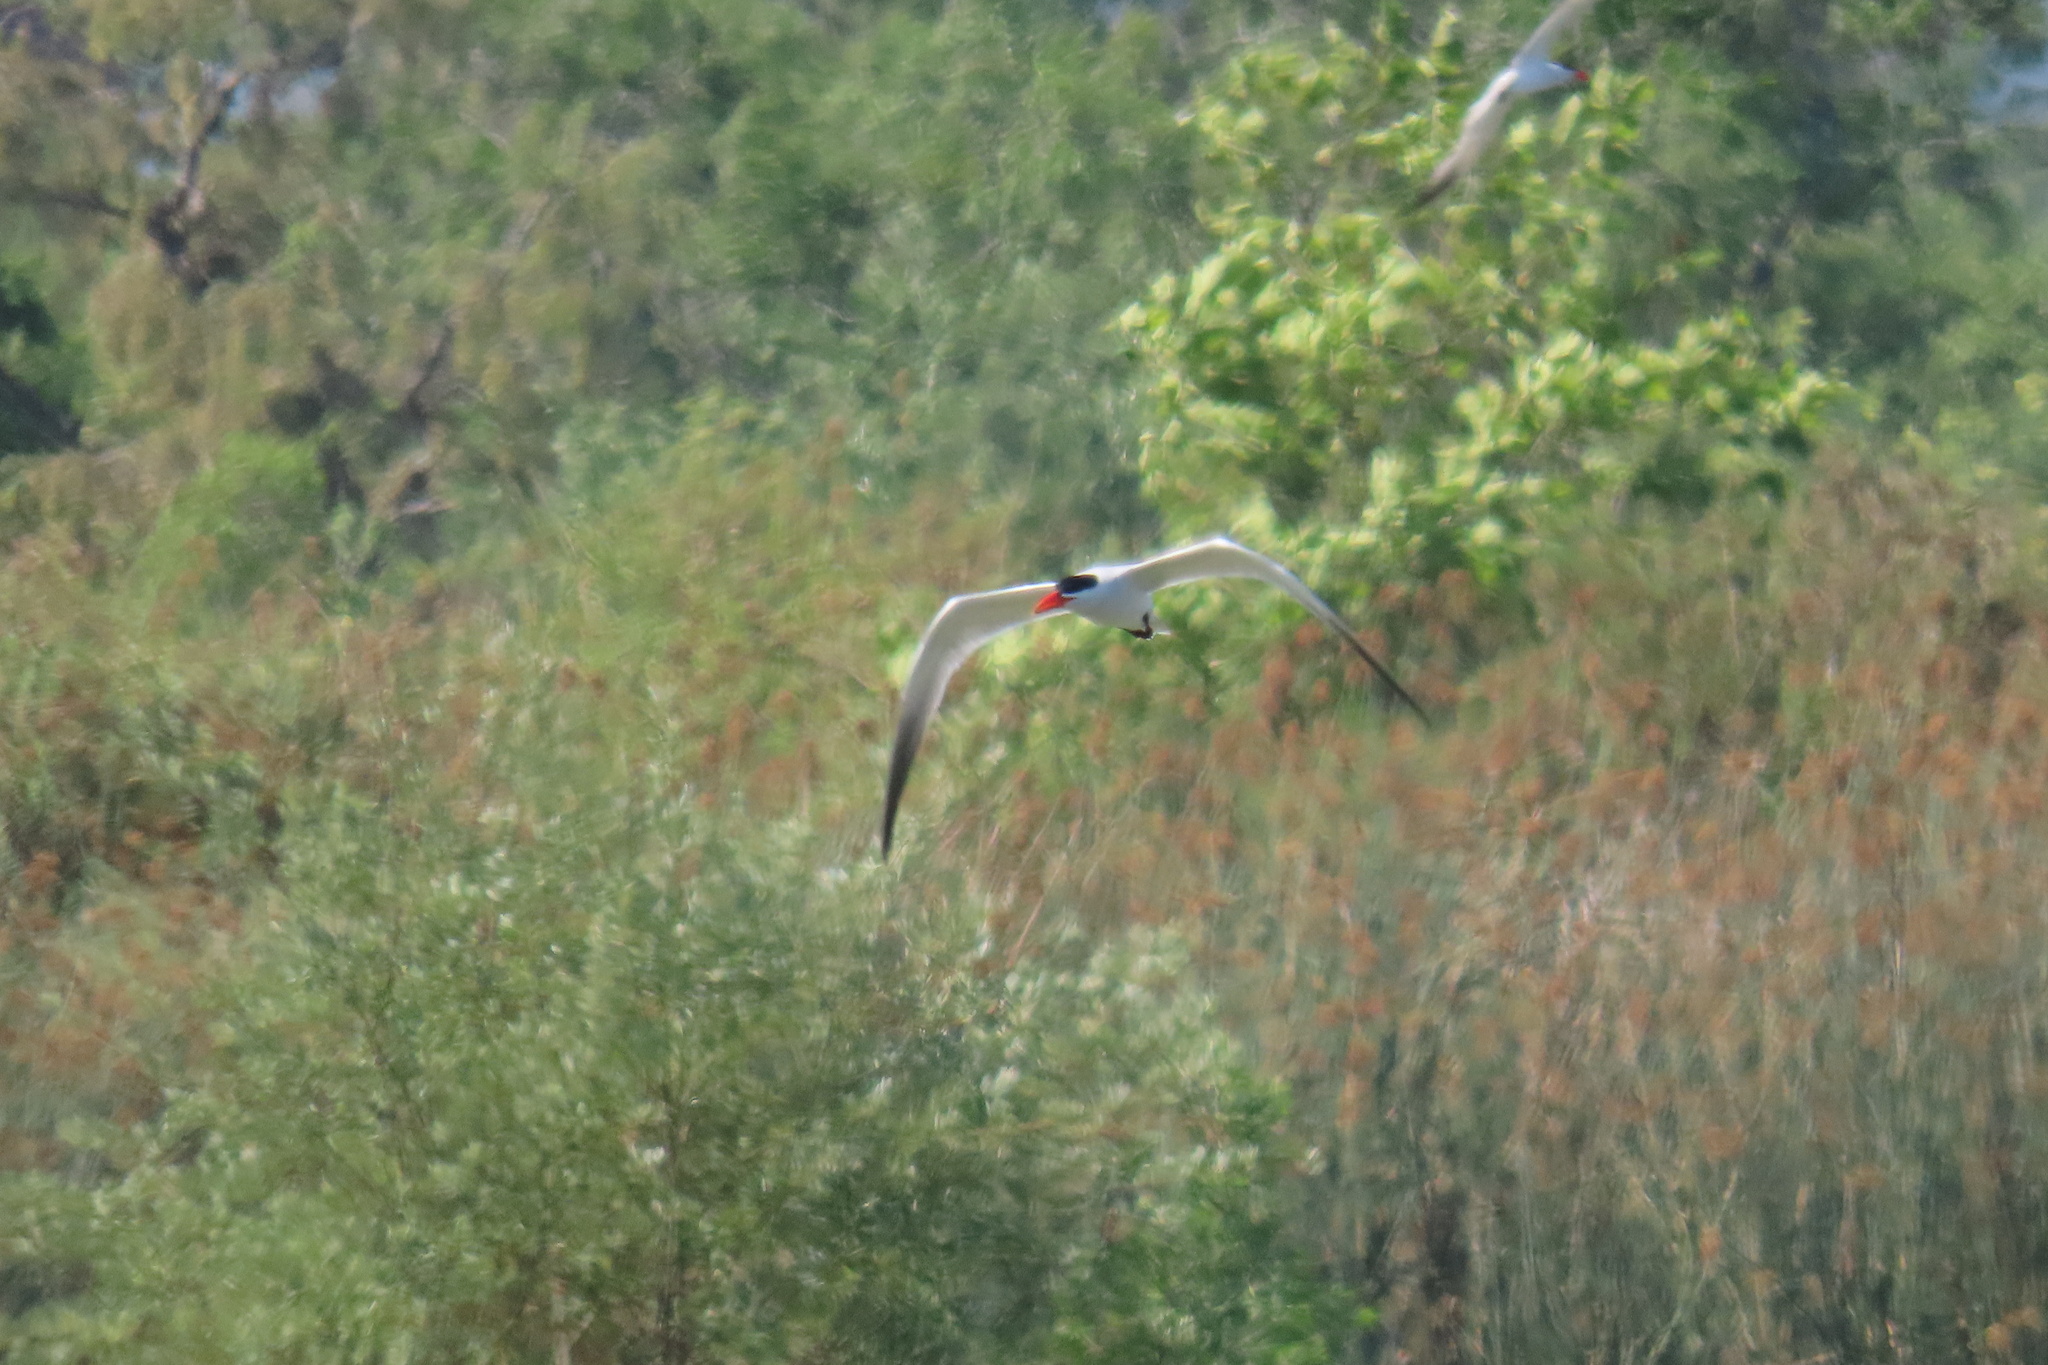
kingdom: Animalia
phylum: Chordata
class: Aves
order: Charadriiformes
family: Laridae
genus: Hydroprogne
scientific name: Hydroprogne caspia
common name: Caspian tern
